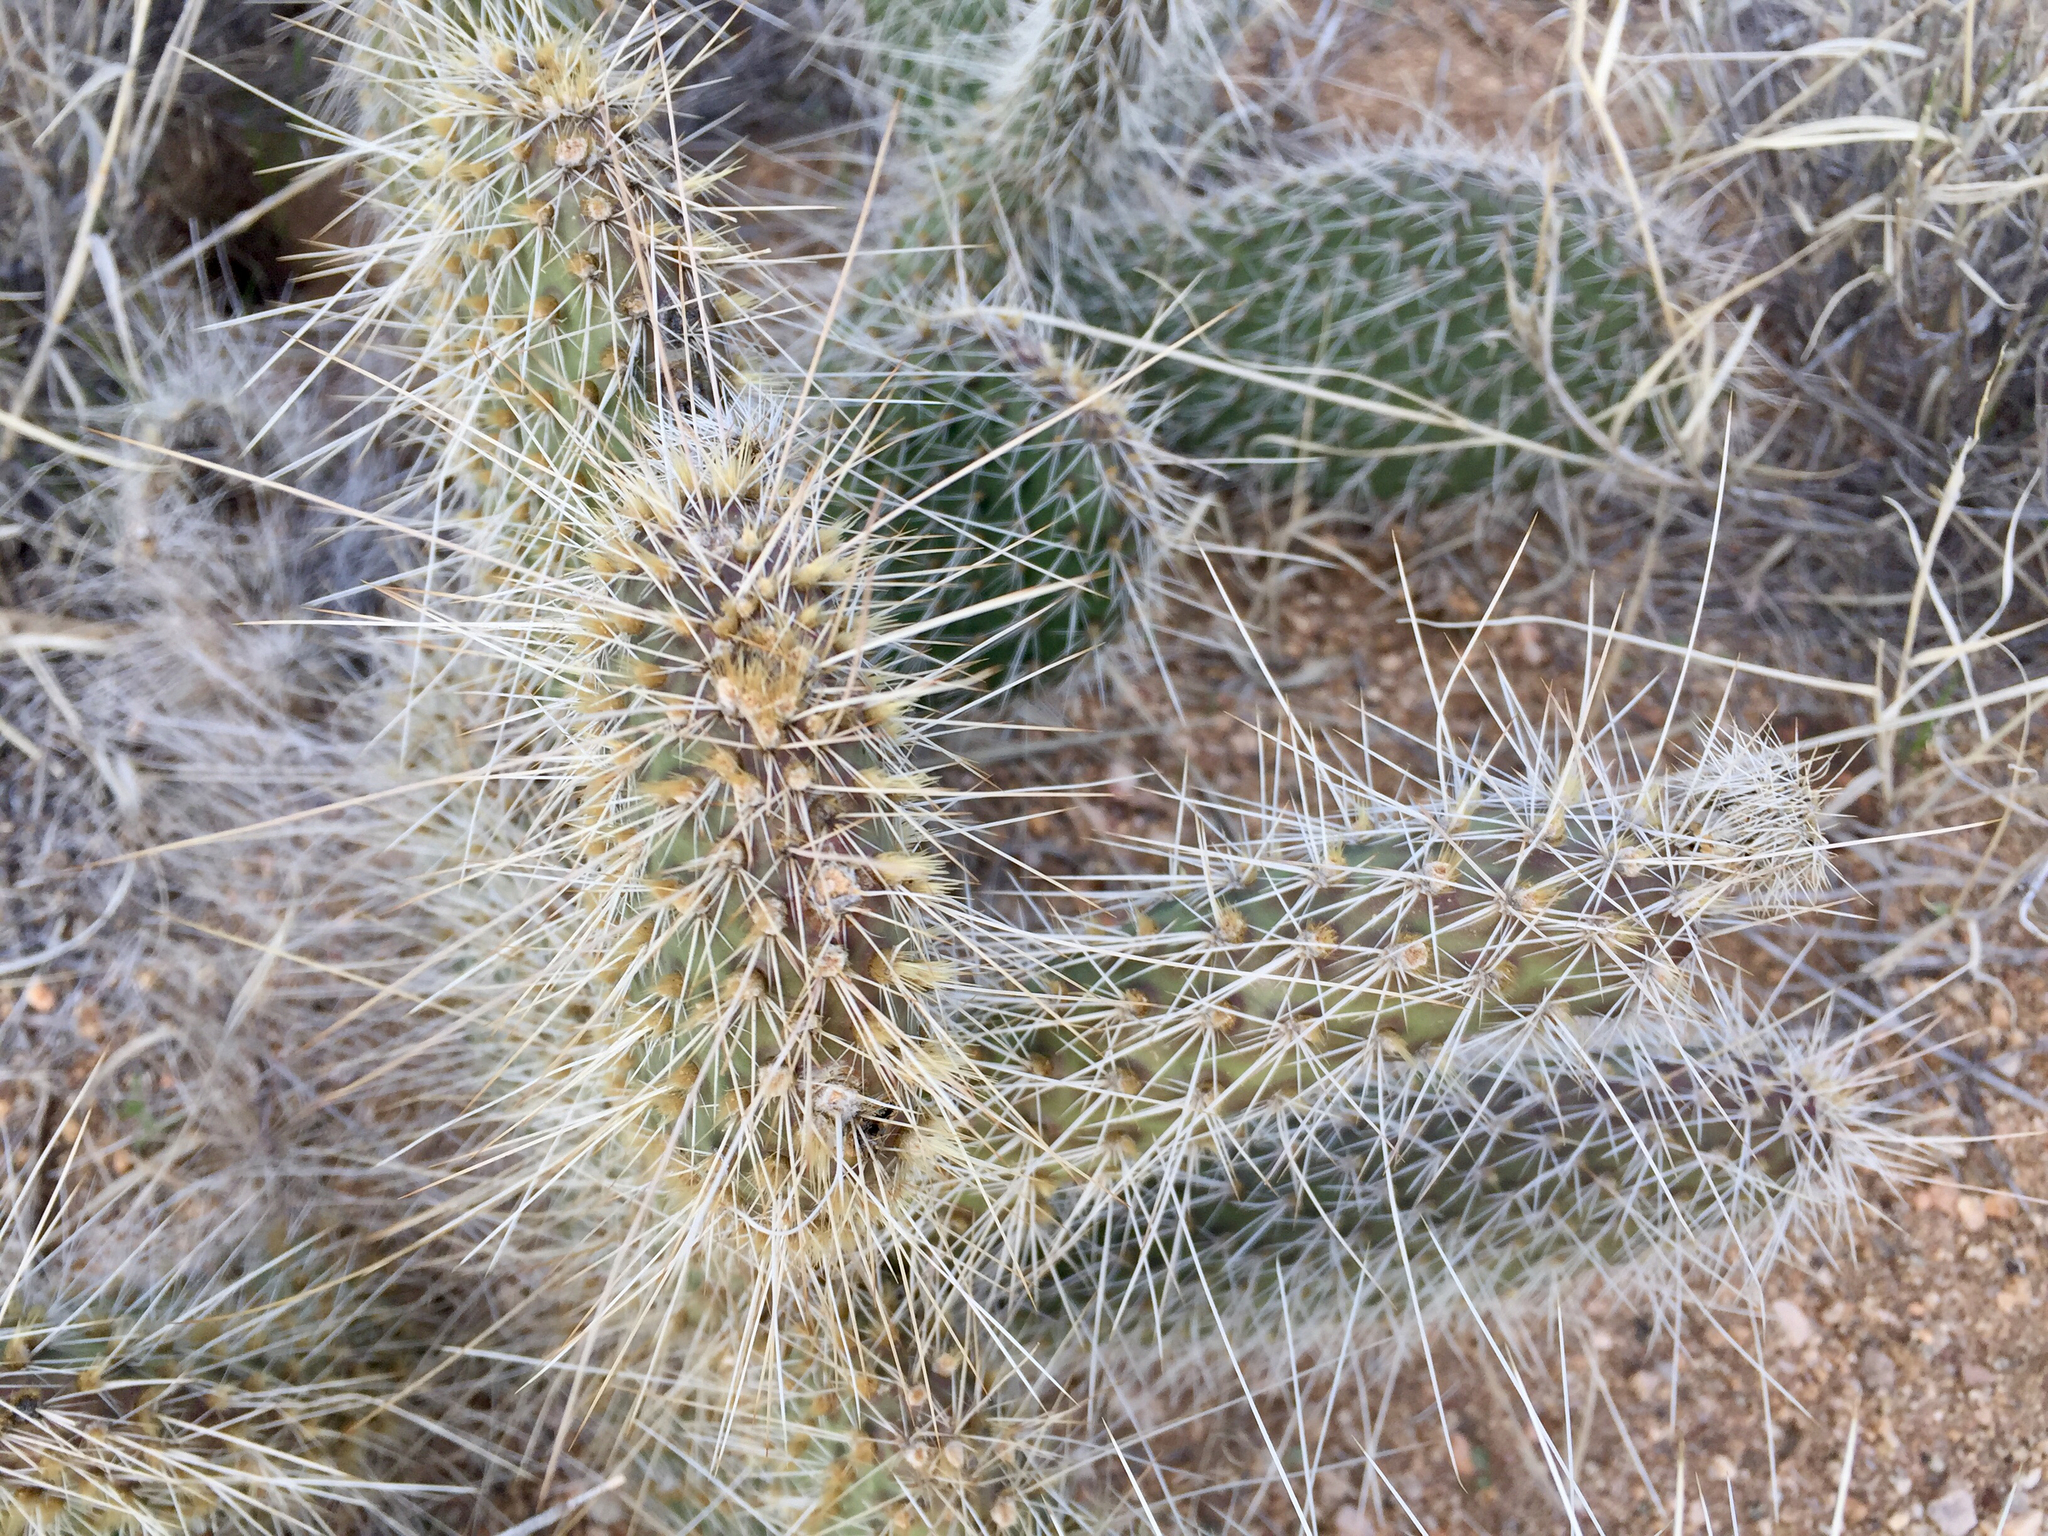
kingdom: Plantae
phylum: Tracheophyta
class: Magnoliopsida
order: Caryophyllales
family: Cactaceae
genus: Opuntia
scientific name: Opuntia polyacantha
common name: Plains prickly-pear
